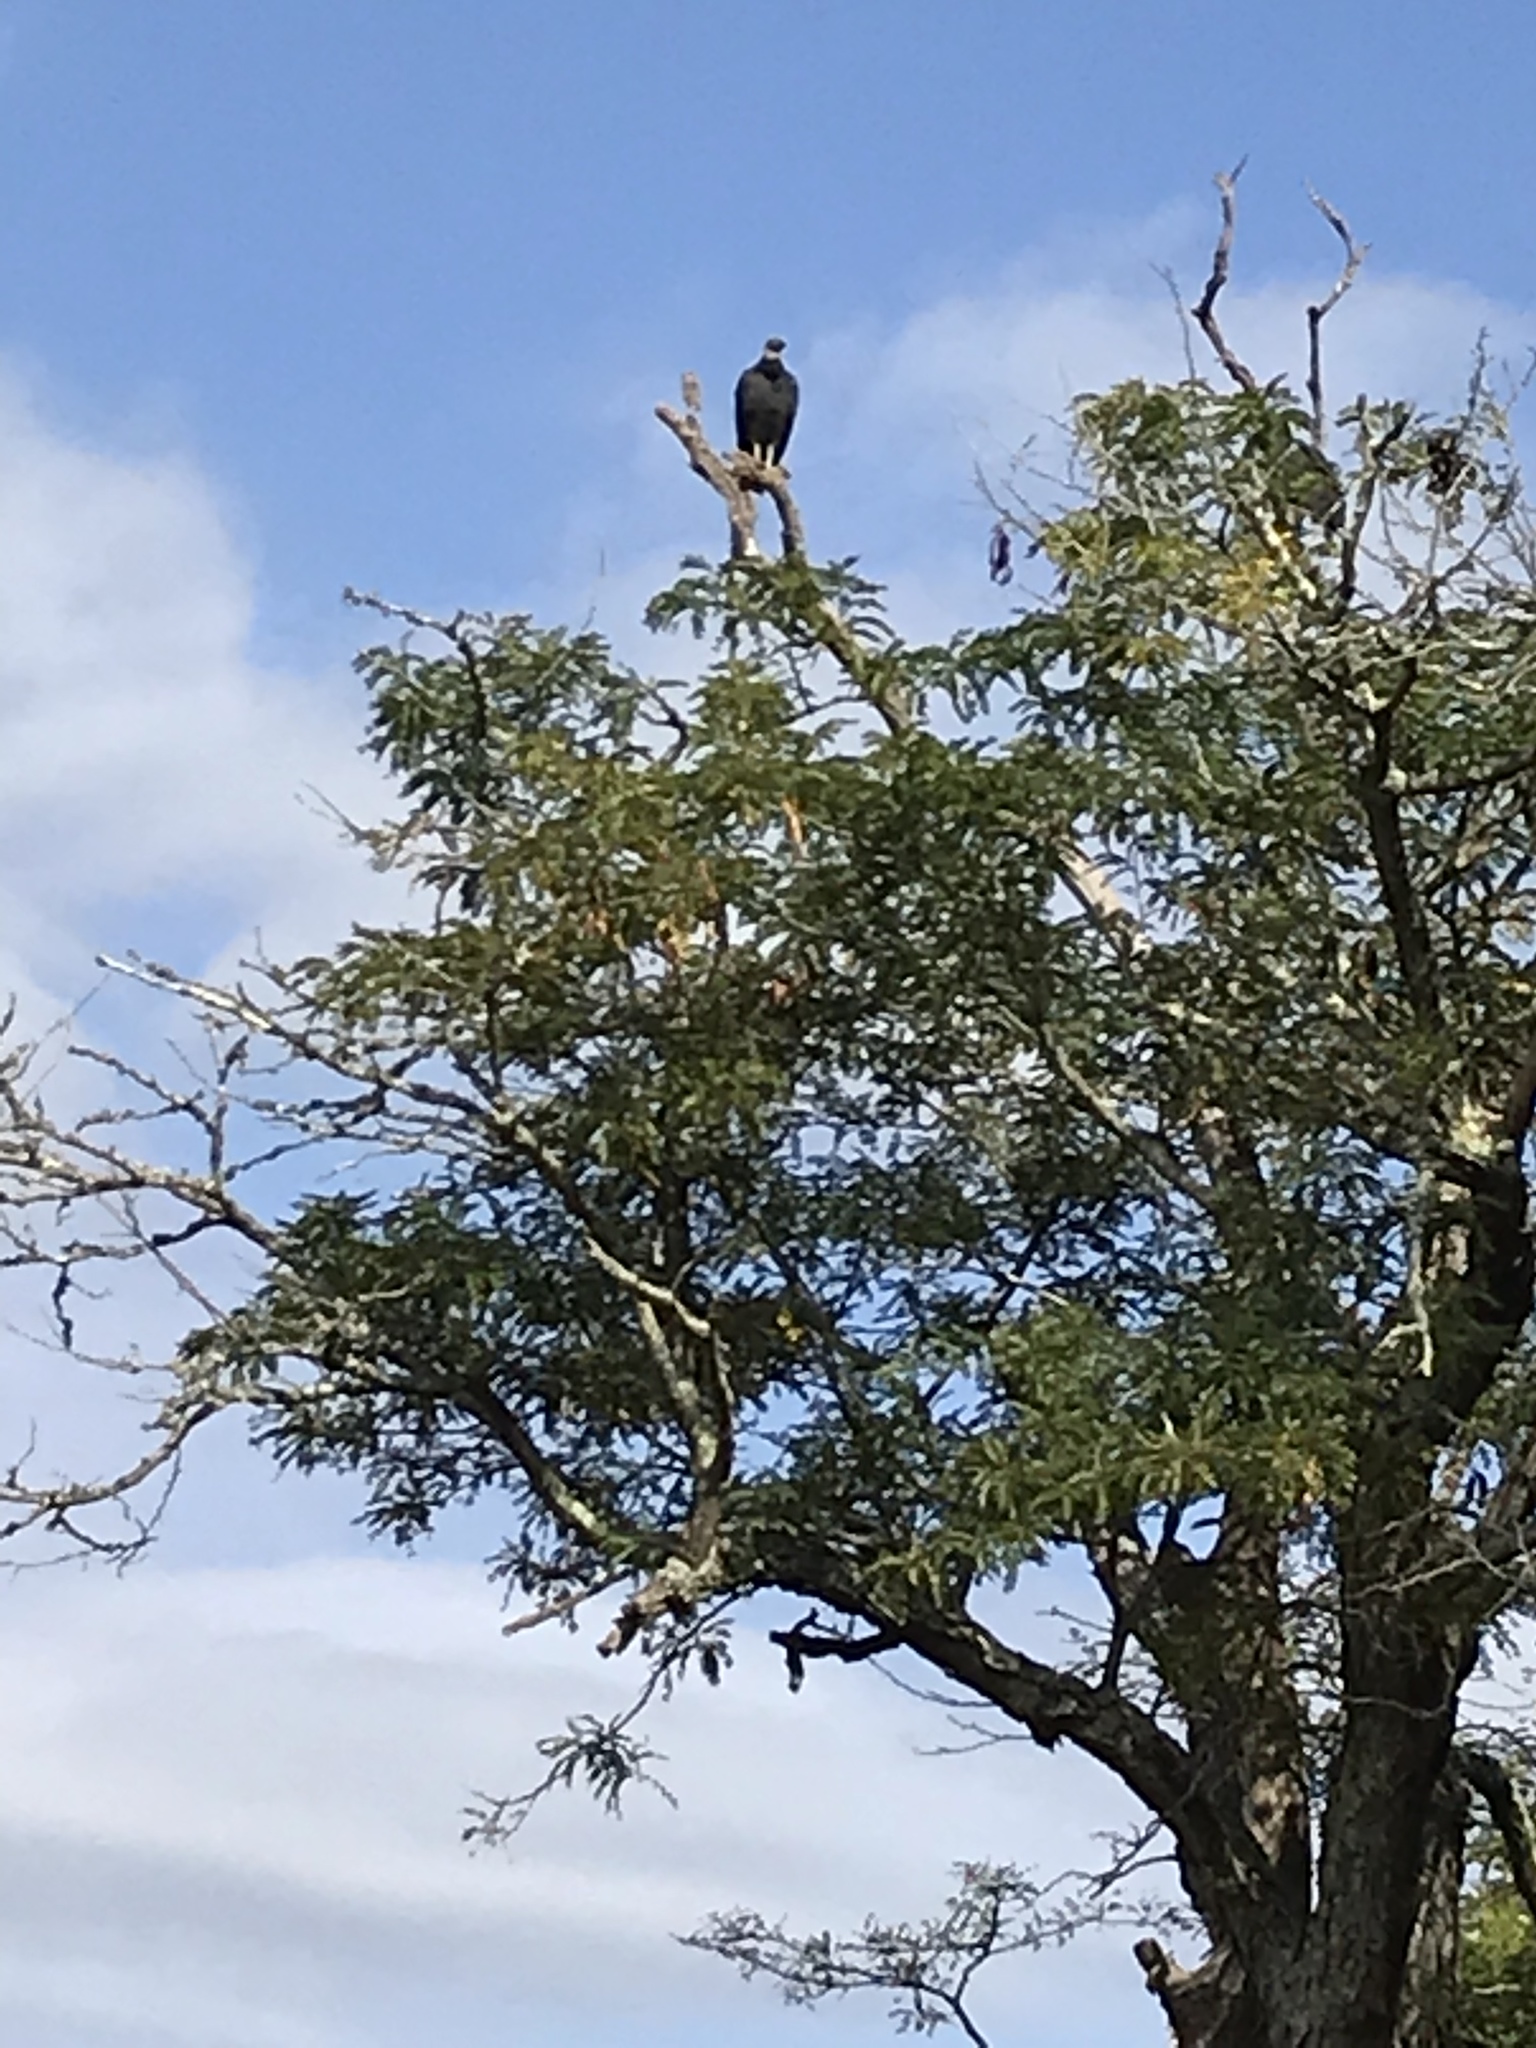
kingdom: Animalia
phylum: Chordata
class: Aves
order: Accipitriformes
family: Cathartidae
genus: Coragyps
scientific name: Coragyps atratus
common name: Black vulture
